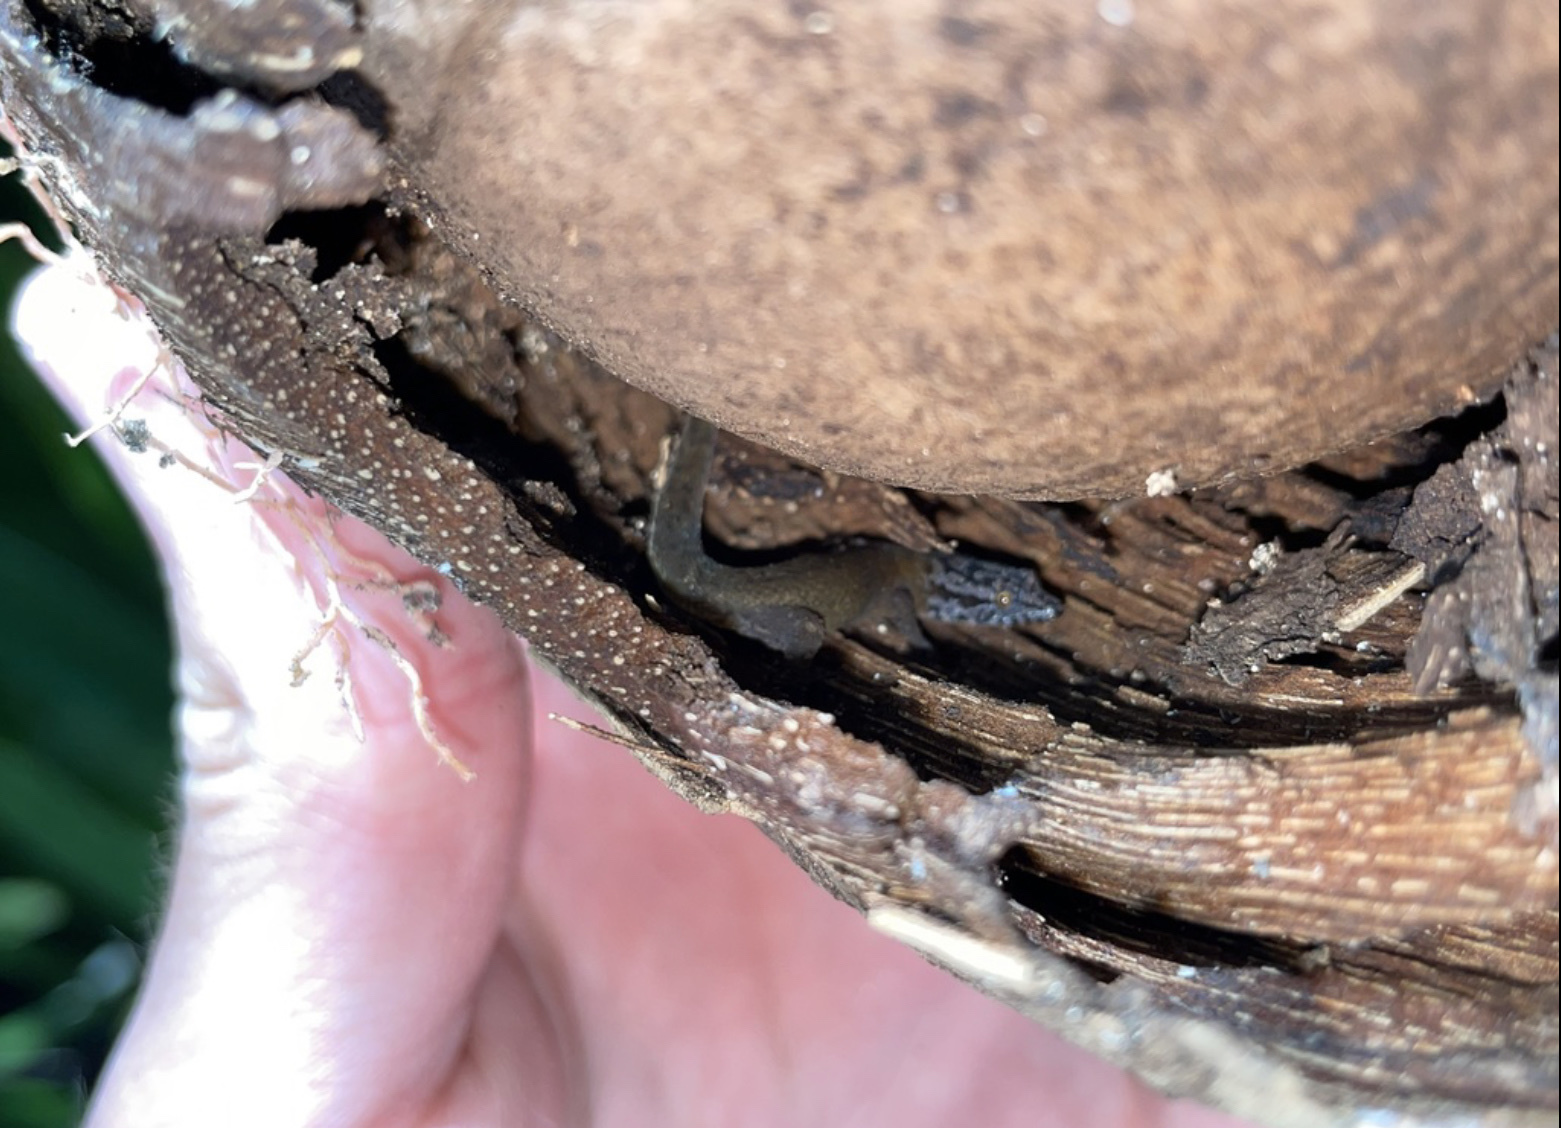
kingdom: Animalia
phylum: Chordata
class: Squamata
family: Sphaerodactylidae
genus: Sphaerodactylus
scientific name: Sphaerodactylus macrolepis
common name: Big-scaled least gecko
